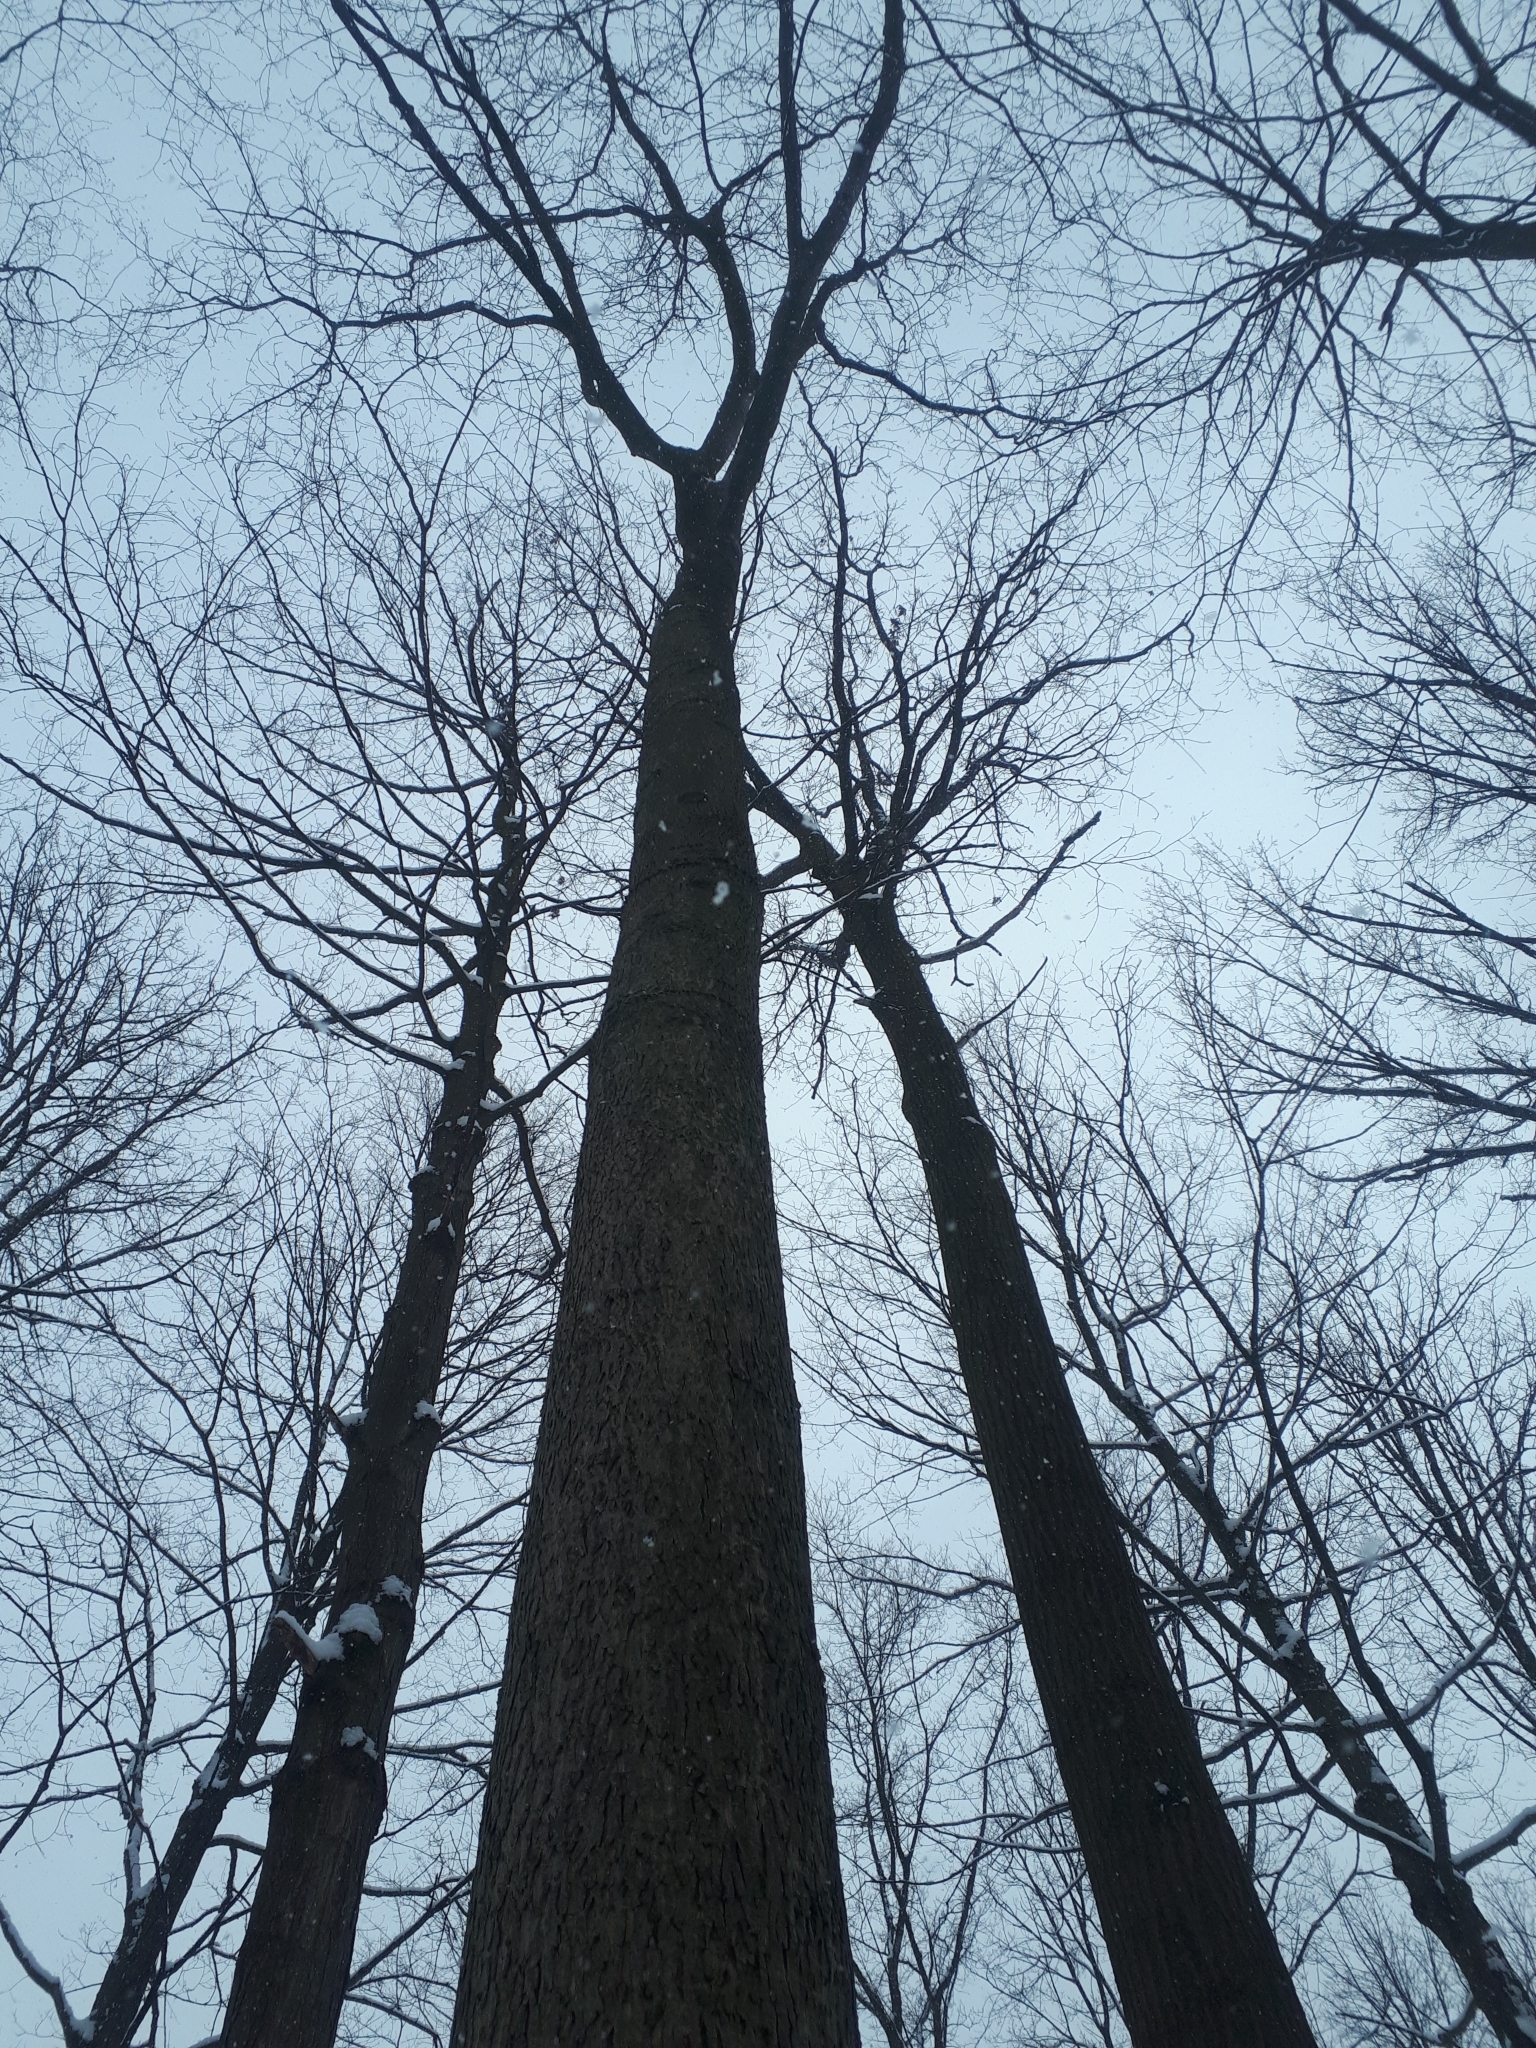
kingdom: Plantae
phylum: Tracheophyta
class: Magnoliopsida
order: Fagales
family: Juglandaceae
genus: Carya
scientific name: Carya cordiformis
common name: Bitternut hickory
